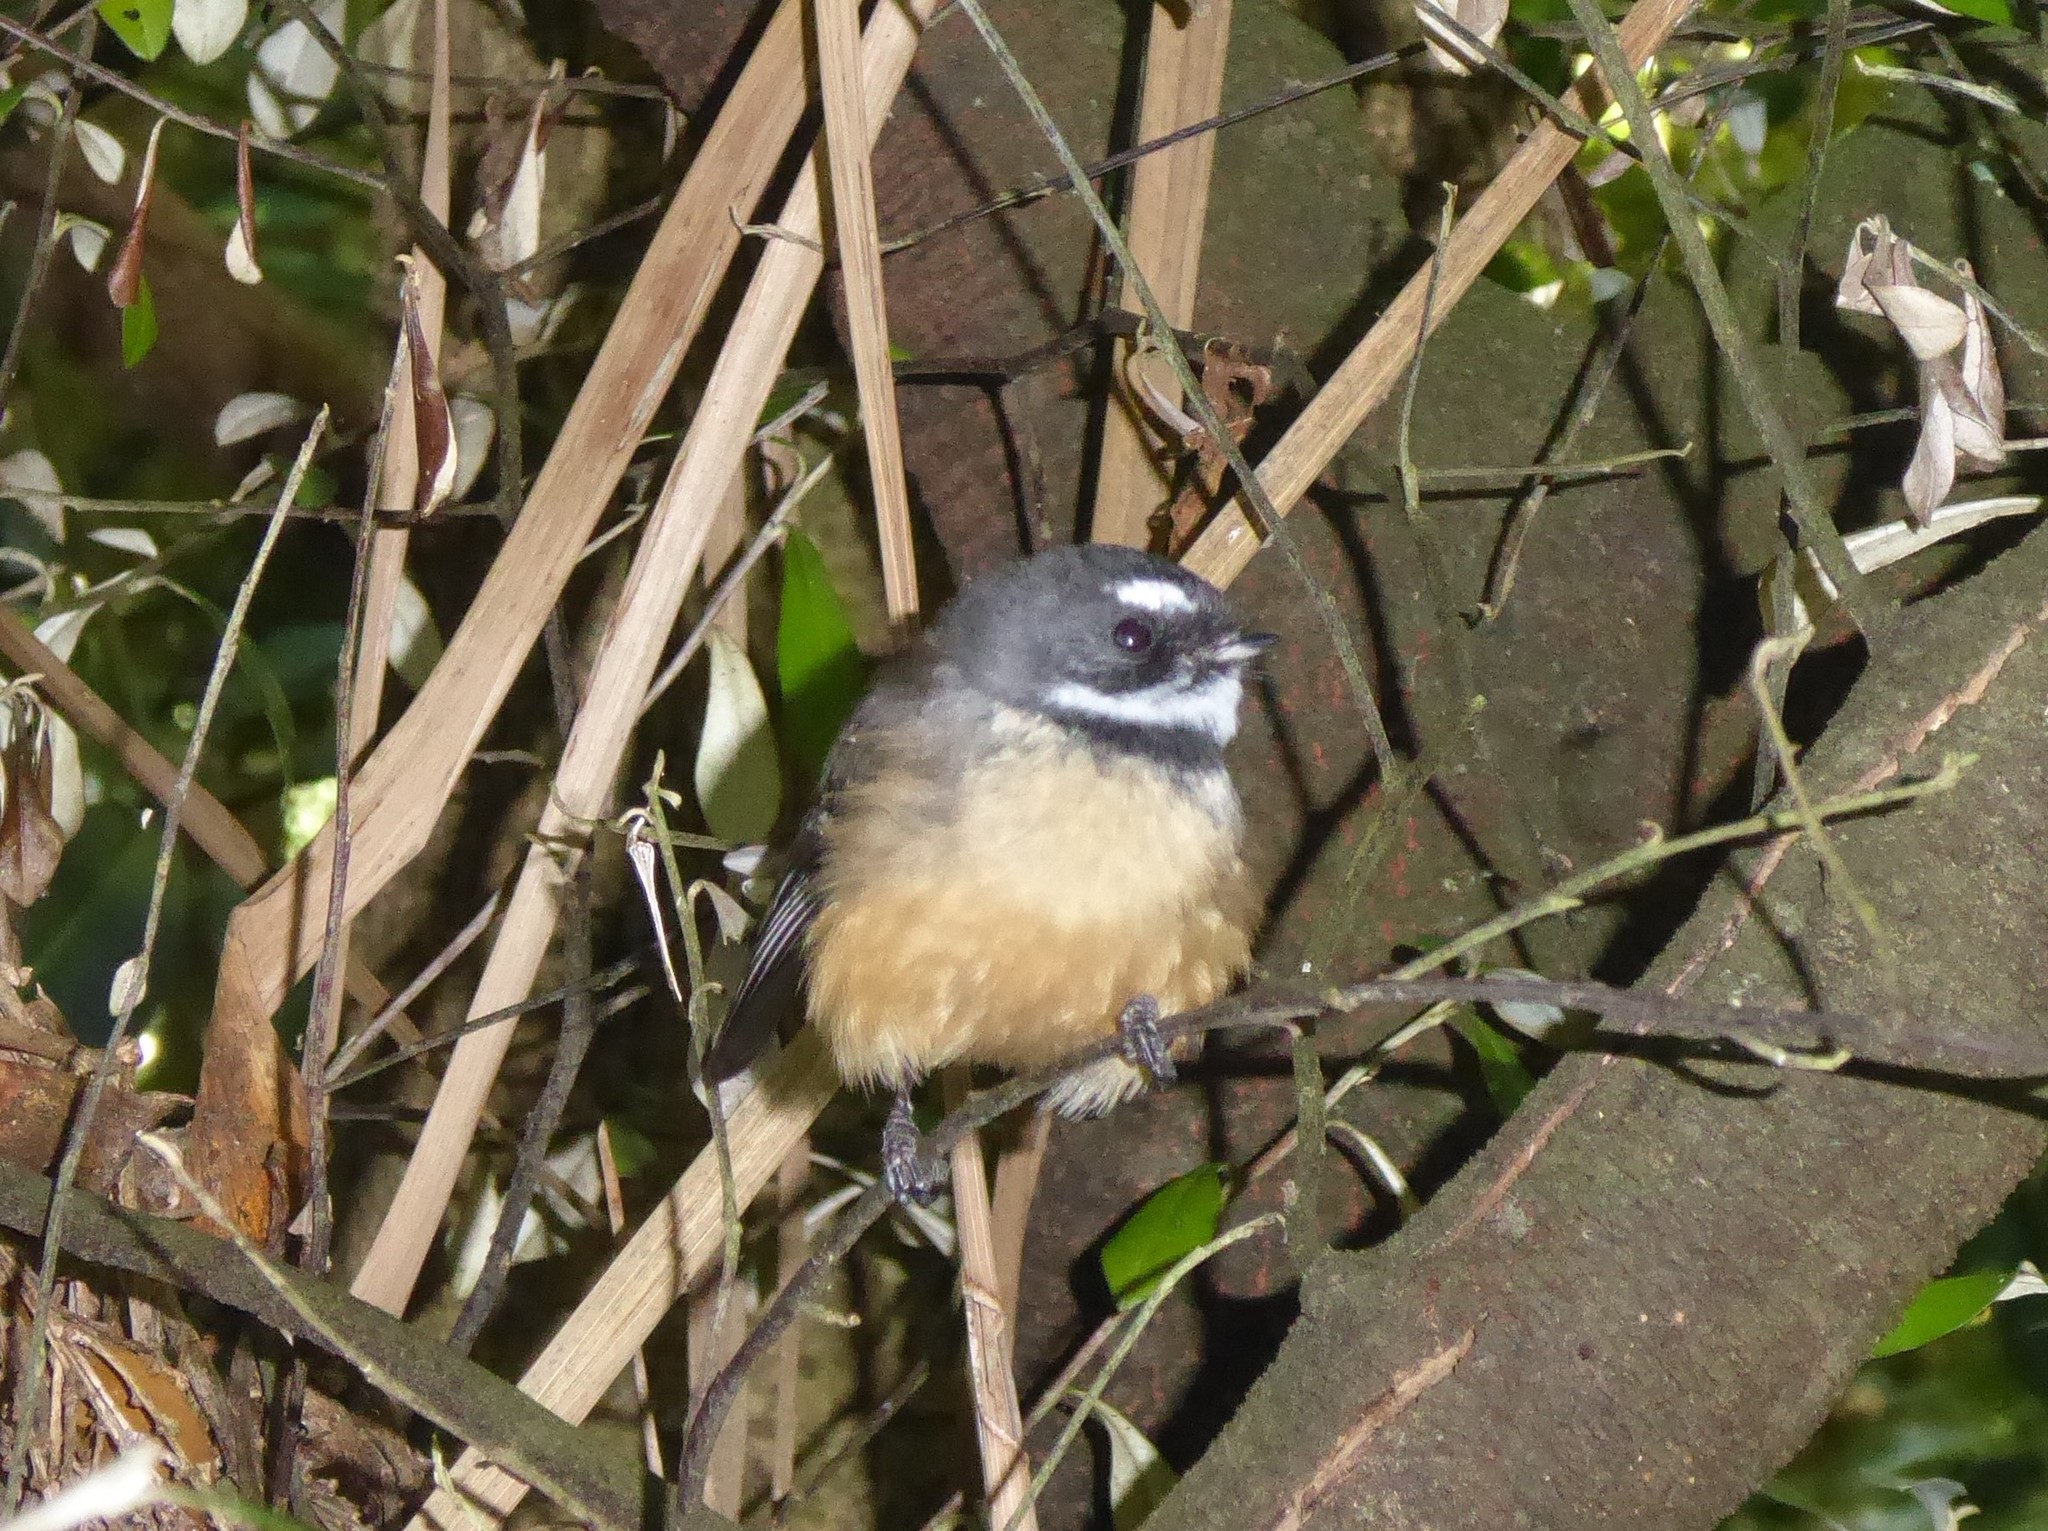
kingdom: Animalia
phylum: Chordata
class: Aves
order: Passeriformes
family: Rhipiduridae
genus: Rhipidura
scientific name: Rhipidura fuliginosa
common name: New zealand fantail
